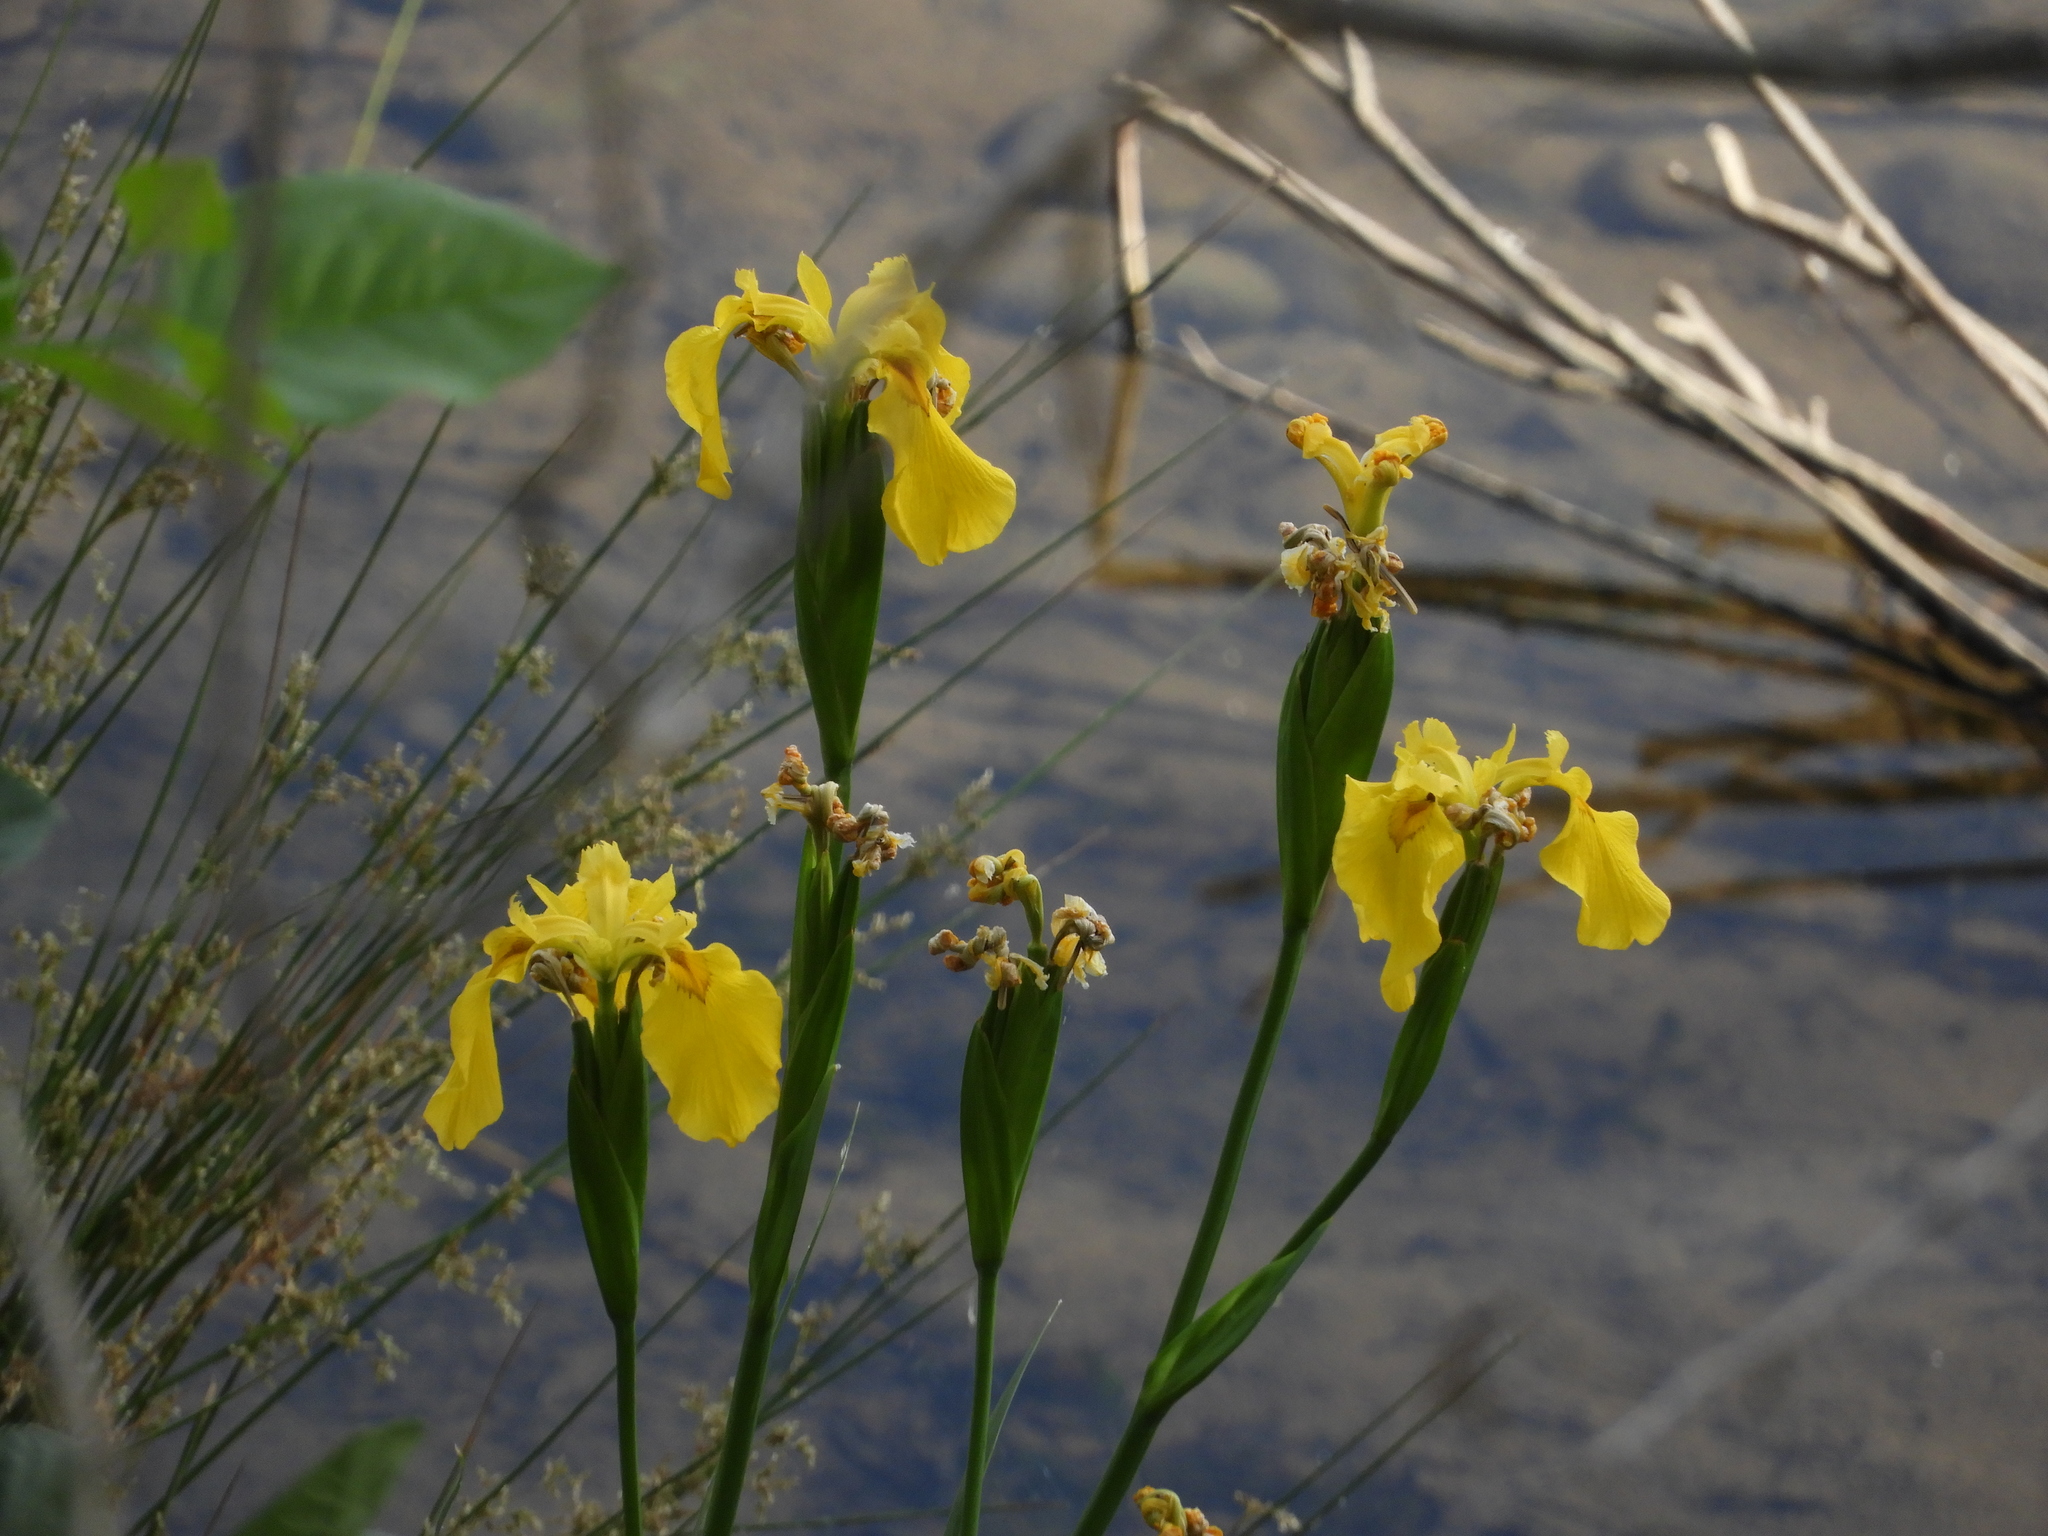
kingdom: Plantae
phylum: Tracheophyta
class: Liliopsida
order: Asparagales
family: Iridaceae
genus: Iris
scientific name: Iris pseudacorus
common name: Yellow flag
